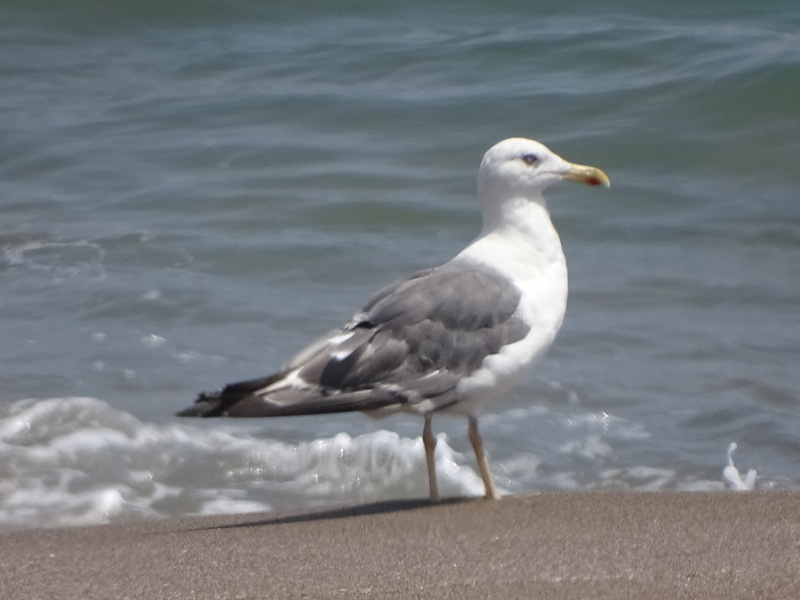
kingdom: Animalia
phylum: Chordata
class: Aves
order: Charadriiformes
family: Laridae
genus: Larus
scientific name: Larus fuscus
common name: Lesser black-backed gull
